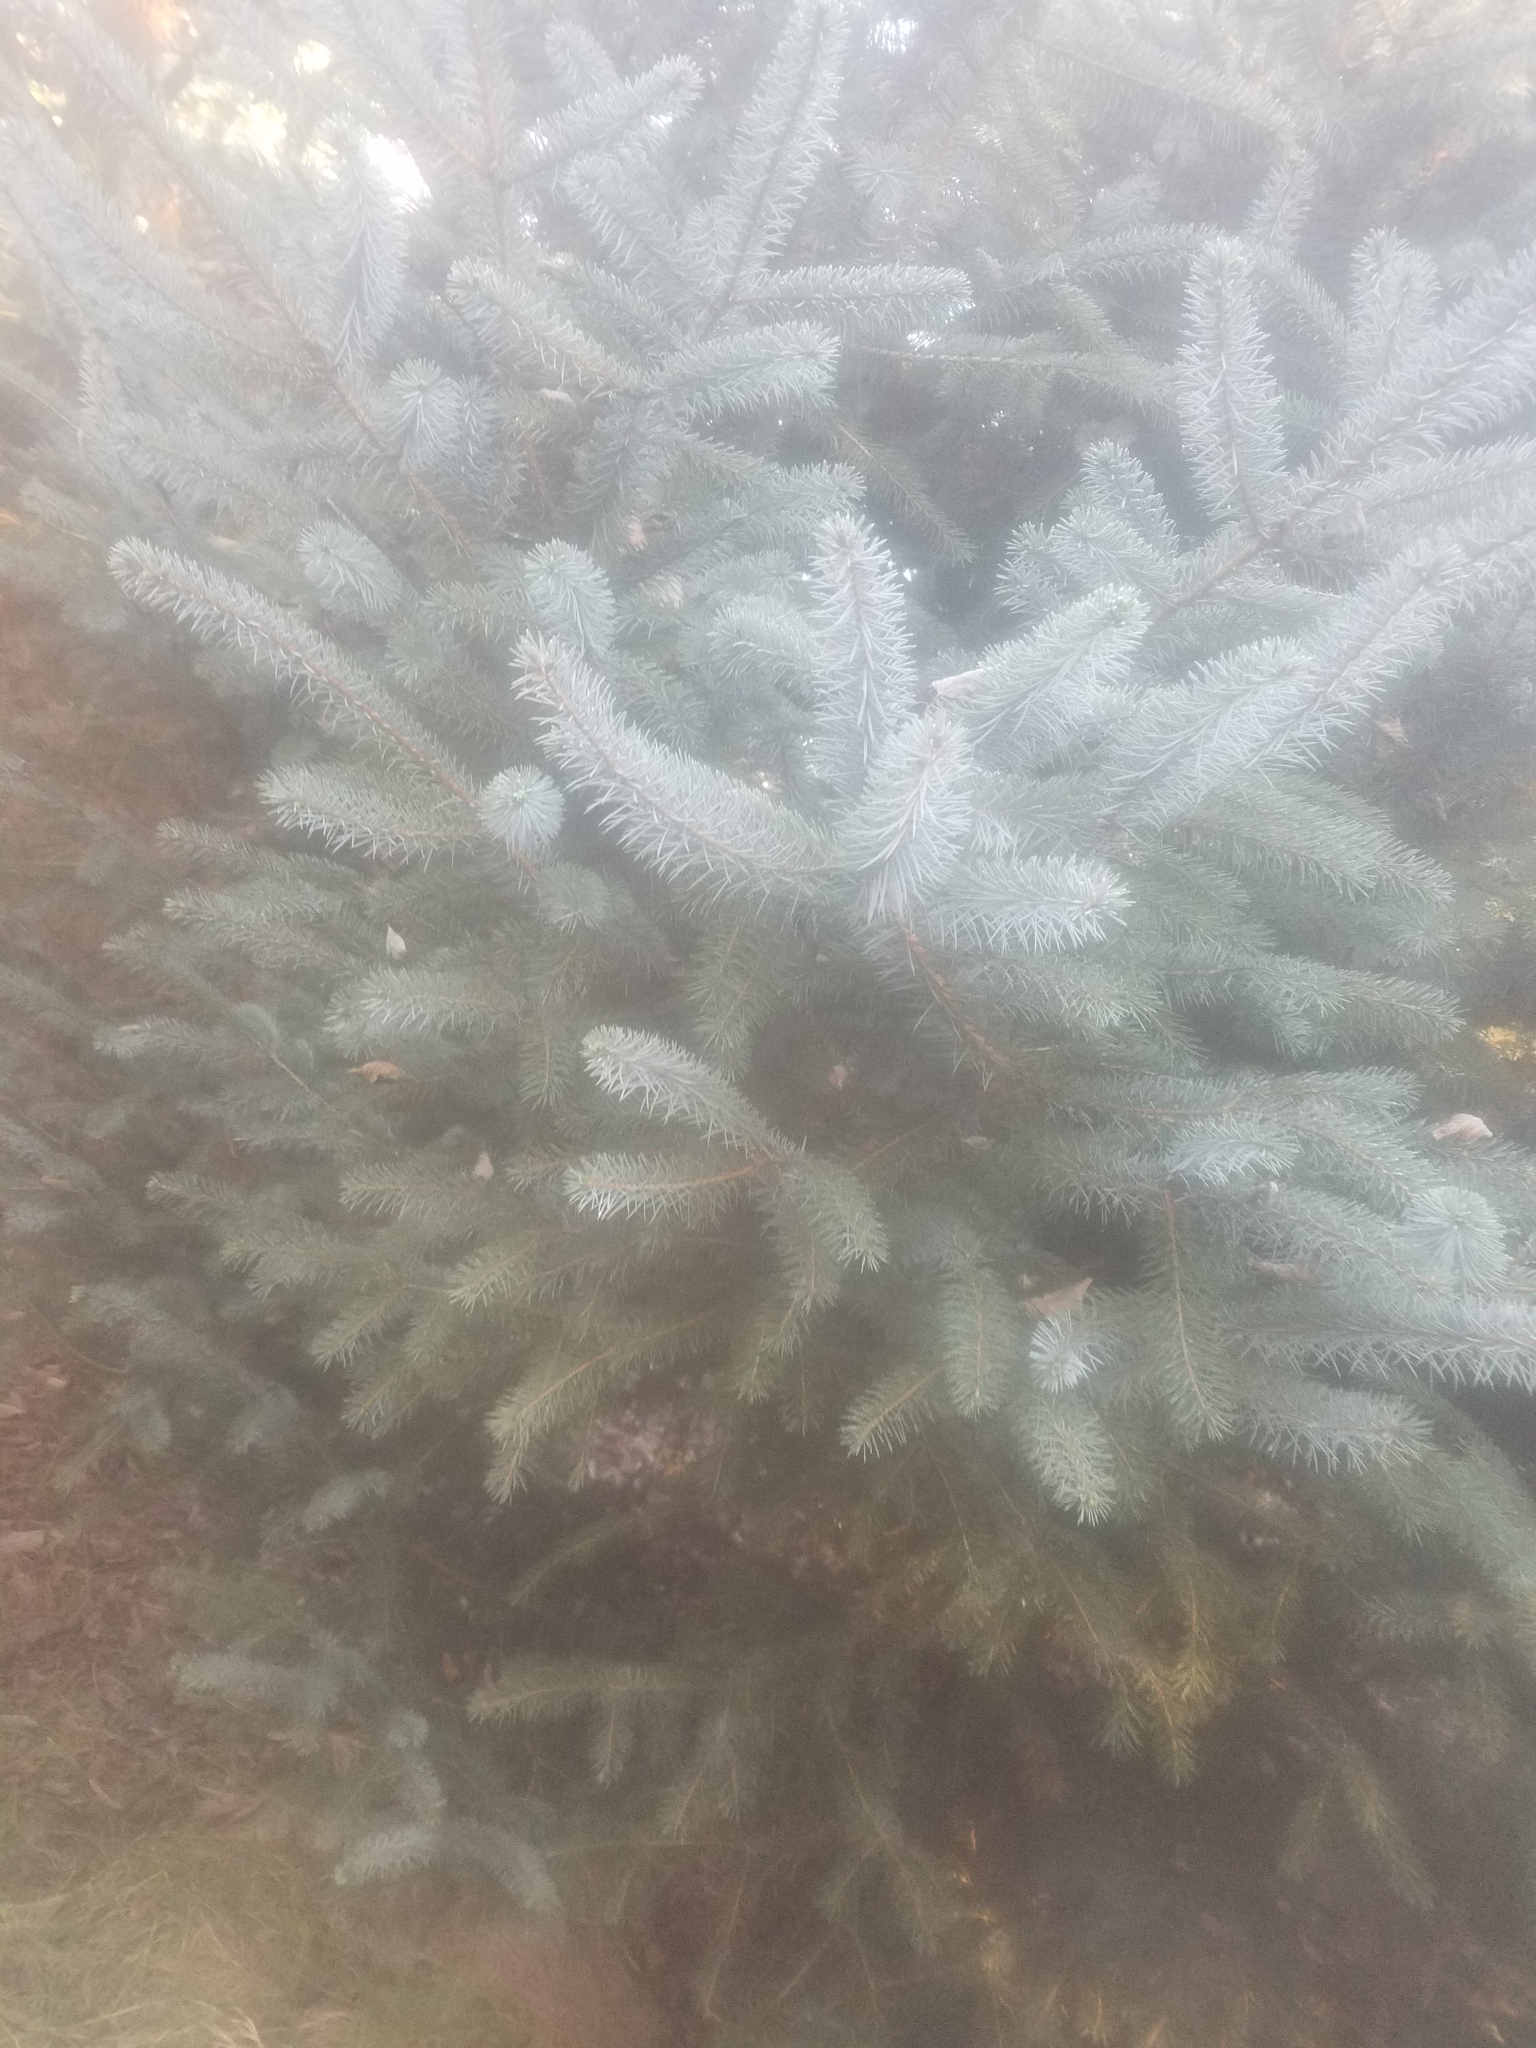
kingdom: Plantae
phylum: Tracheophyta
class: Pinopsida
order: Pinales
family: Pinaceae
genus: Picea
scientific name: Picea sitchensis
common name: Sitka spruce
